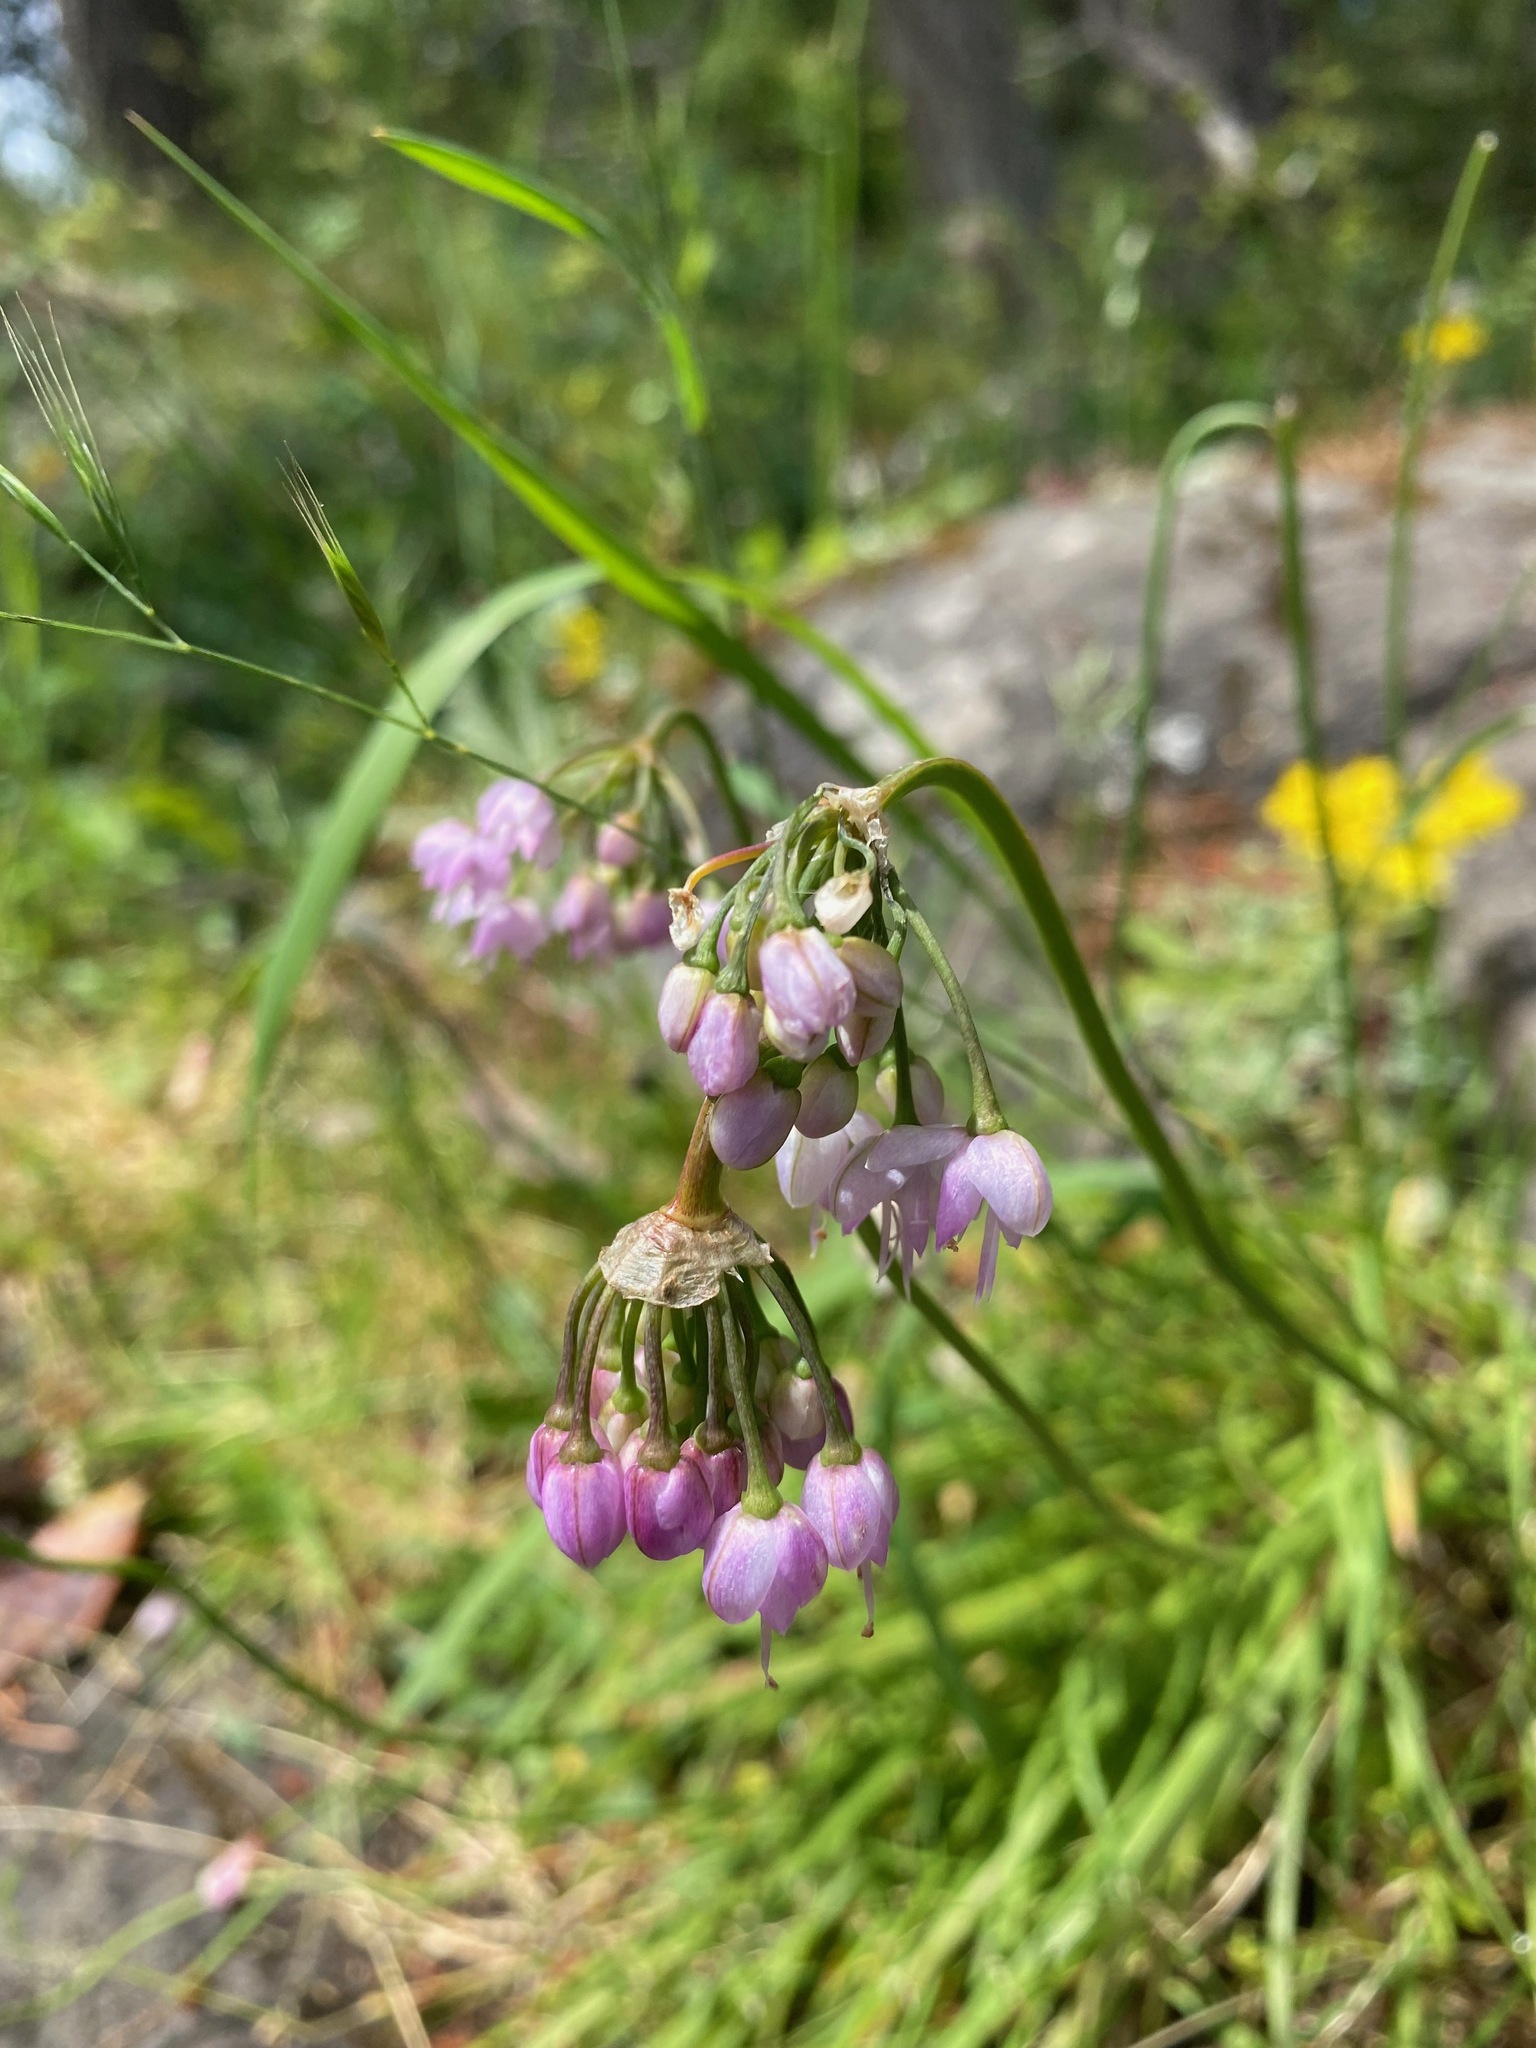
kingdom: Plantae
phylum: Tracheophyta
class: Liliopsida
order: Asparagales
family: Amaryllidaceae
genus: Allium
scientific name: Allium cernuum
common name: Nodding onion
